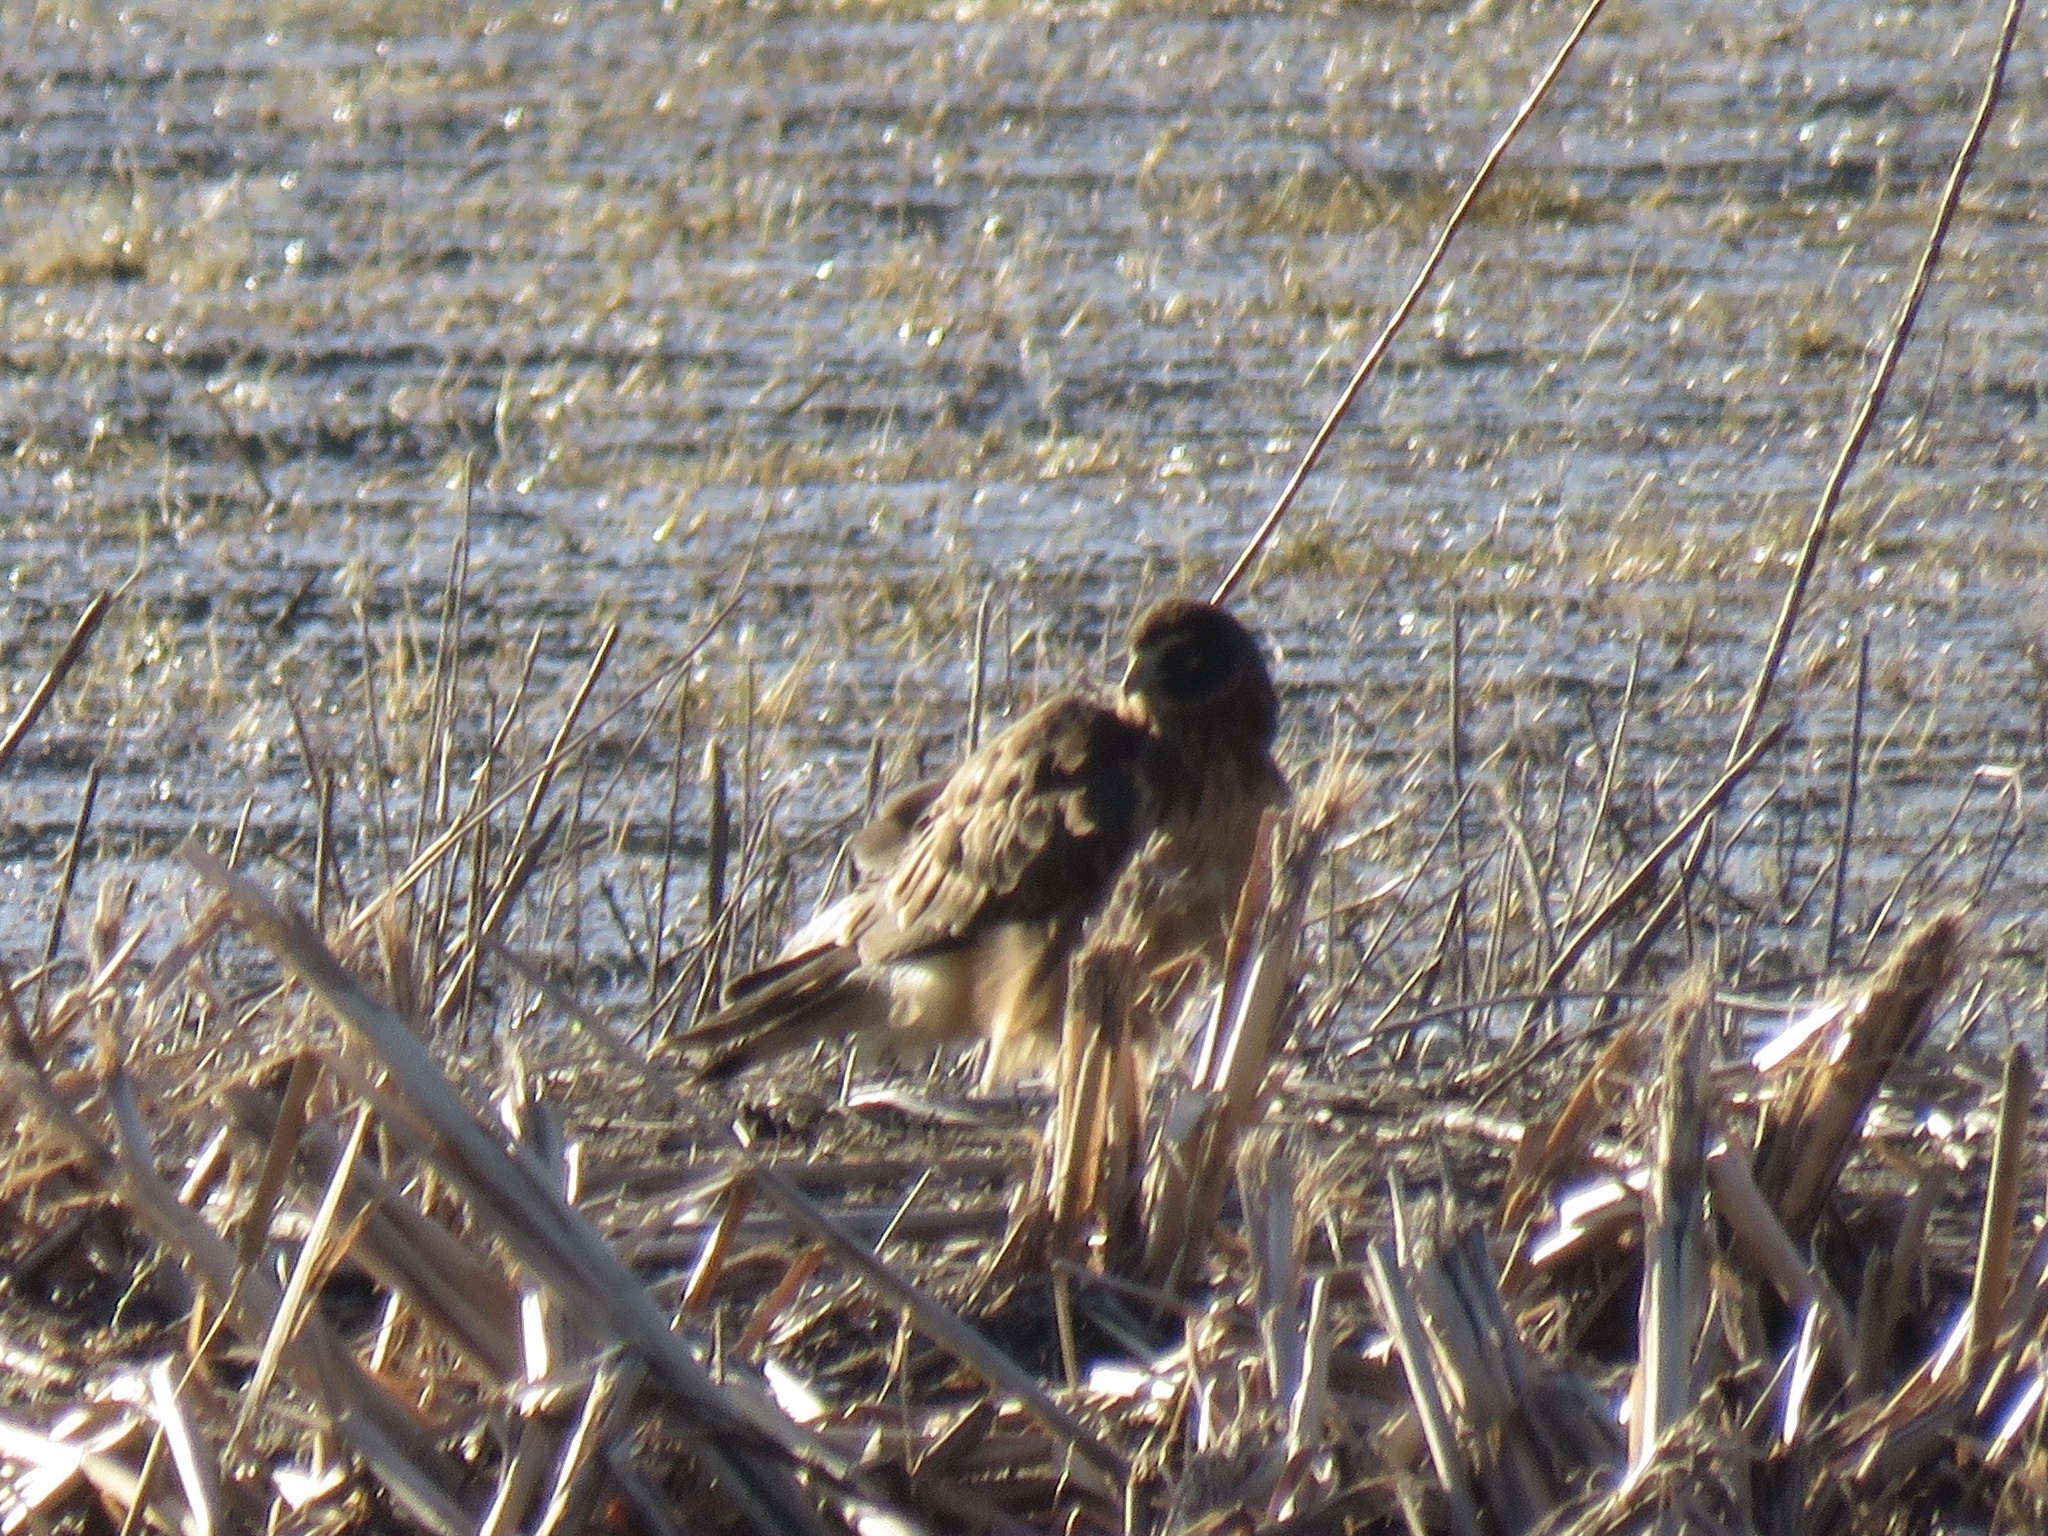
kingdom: Animalia
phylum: Chordata
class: Aves
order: Accipitriformes
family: Accipitridae
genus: Circus
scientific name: Circus cyaneus
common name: Hen harrier
